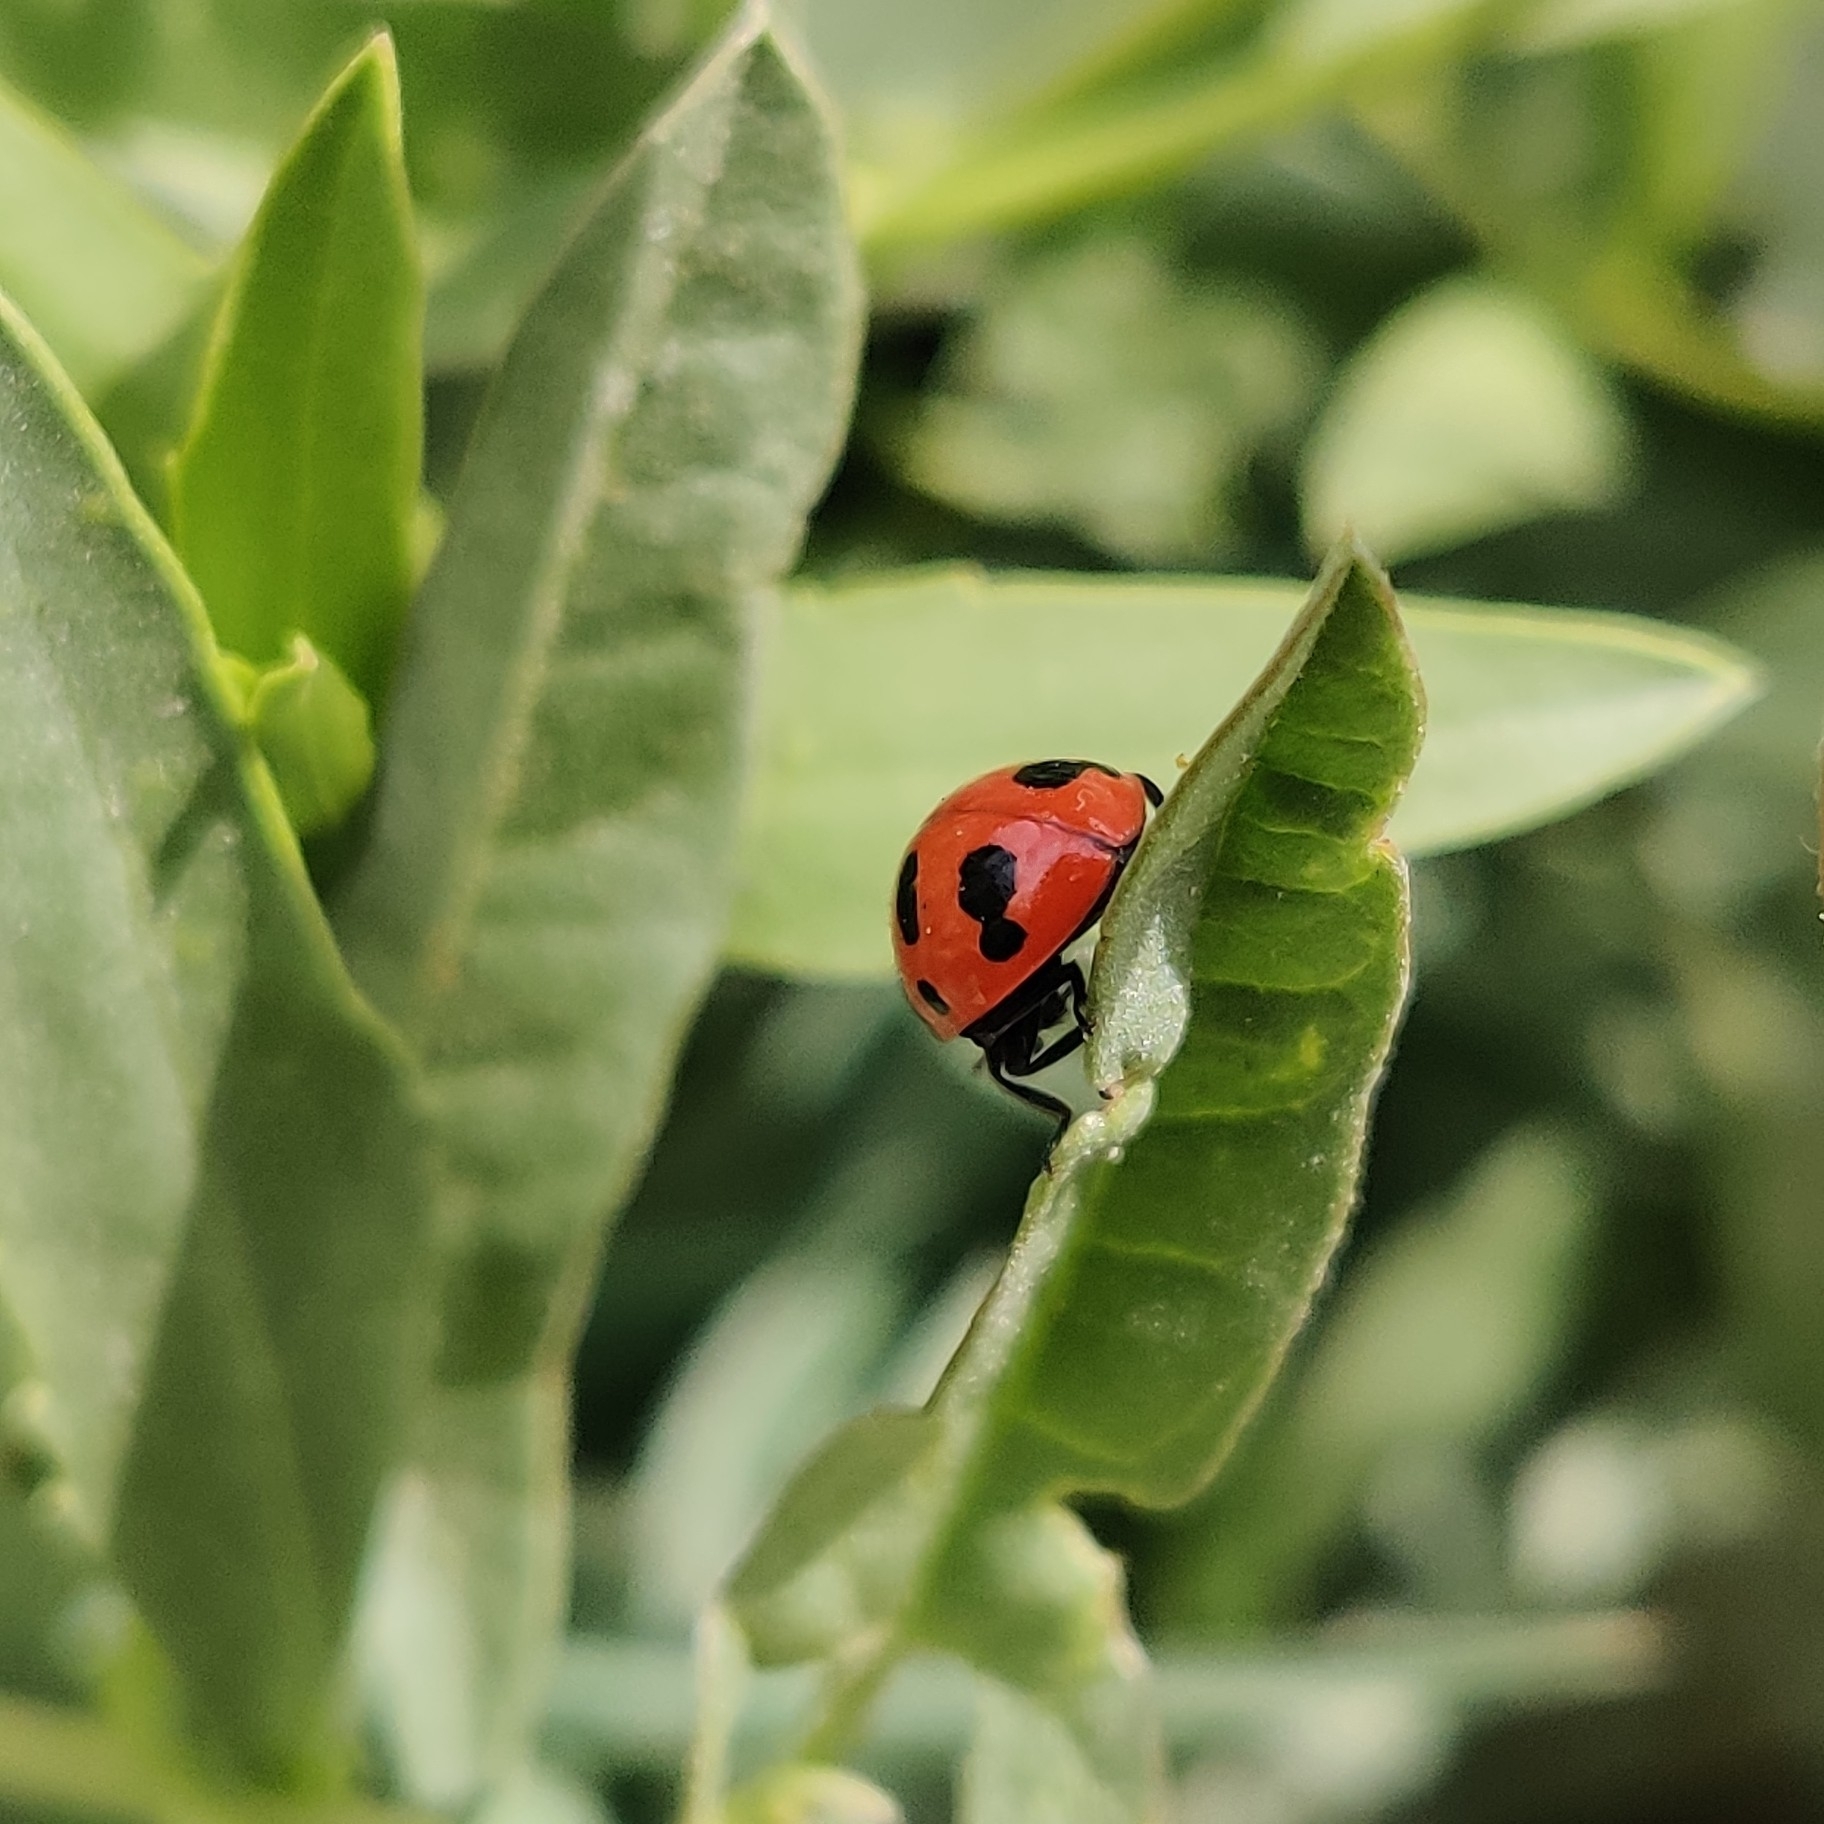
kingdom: Animalia
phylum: Arthropoda
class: Insecta
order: Coleoptera
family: Coccinellidae
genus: Coccinella
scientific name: Coccinella
